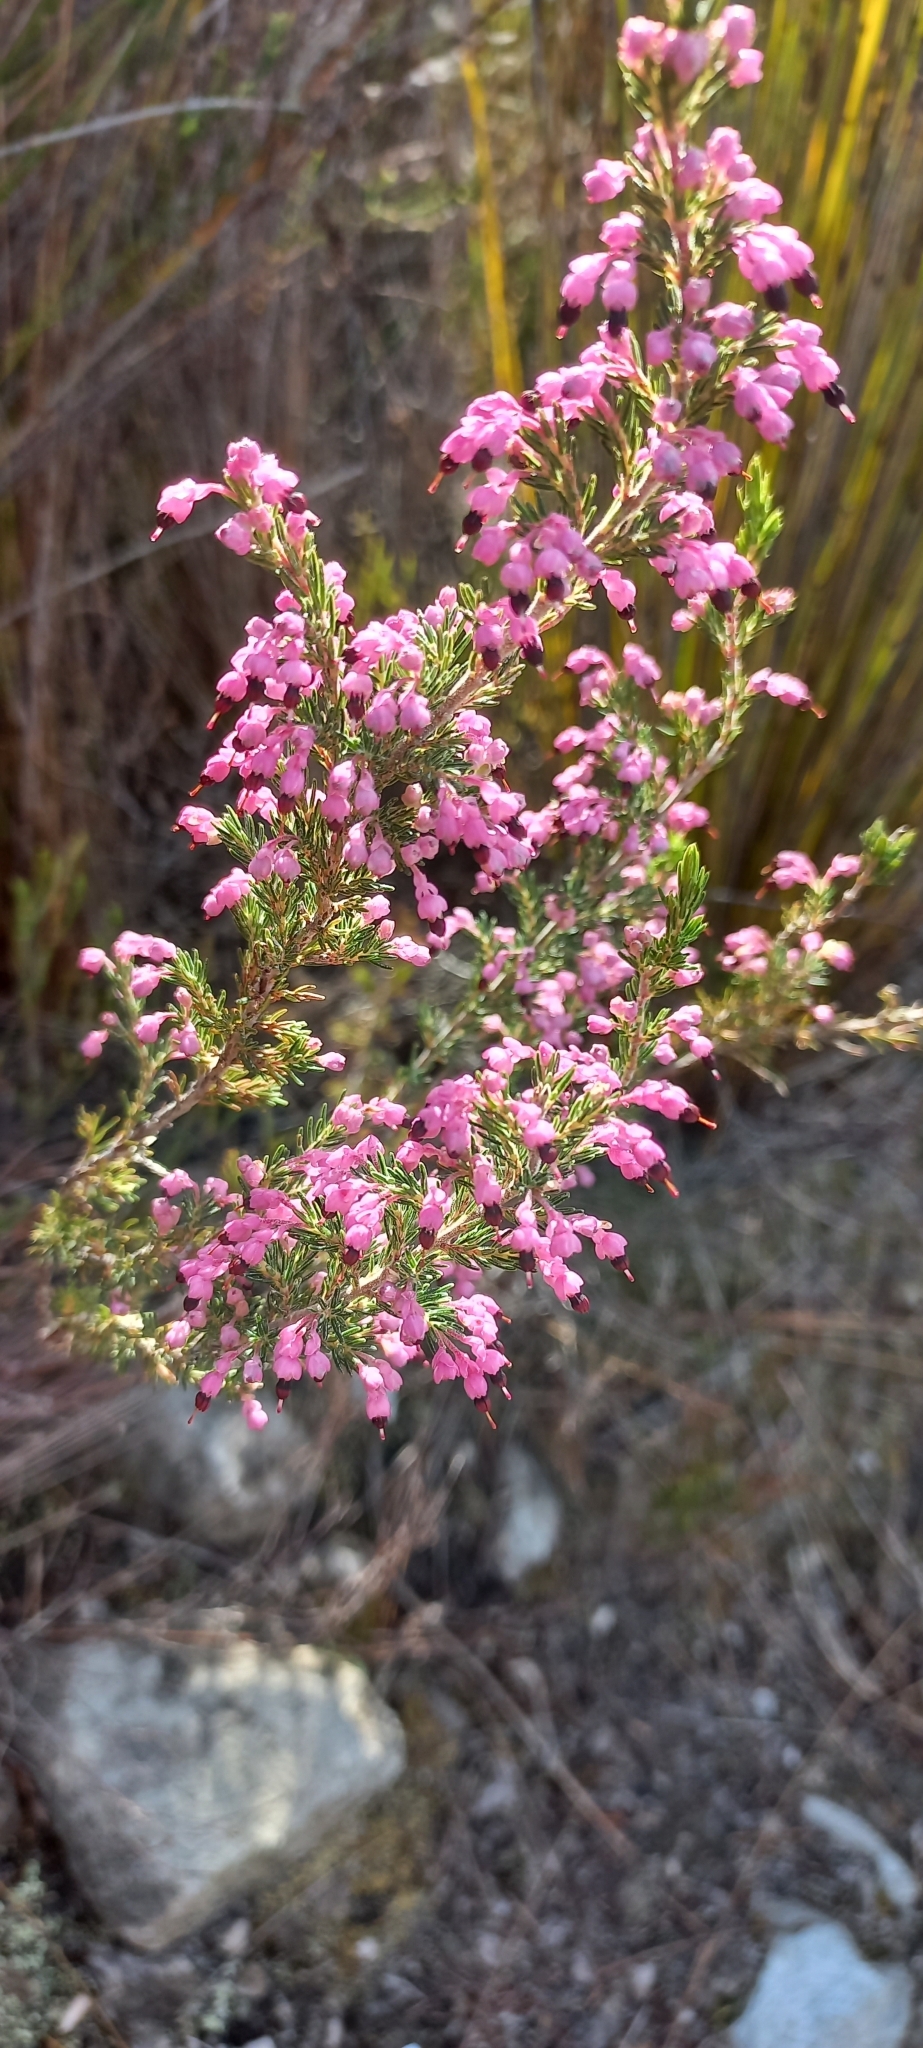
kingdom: Plantae
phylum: Tracheophyta
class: Magnoliopsida
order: Ericales
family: Ericaceae
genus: Erica
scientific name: Erica placentiflora
